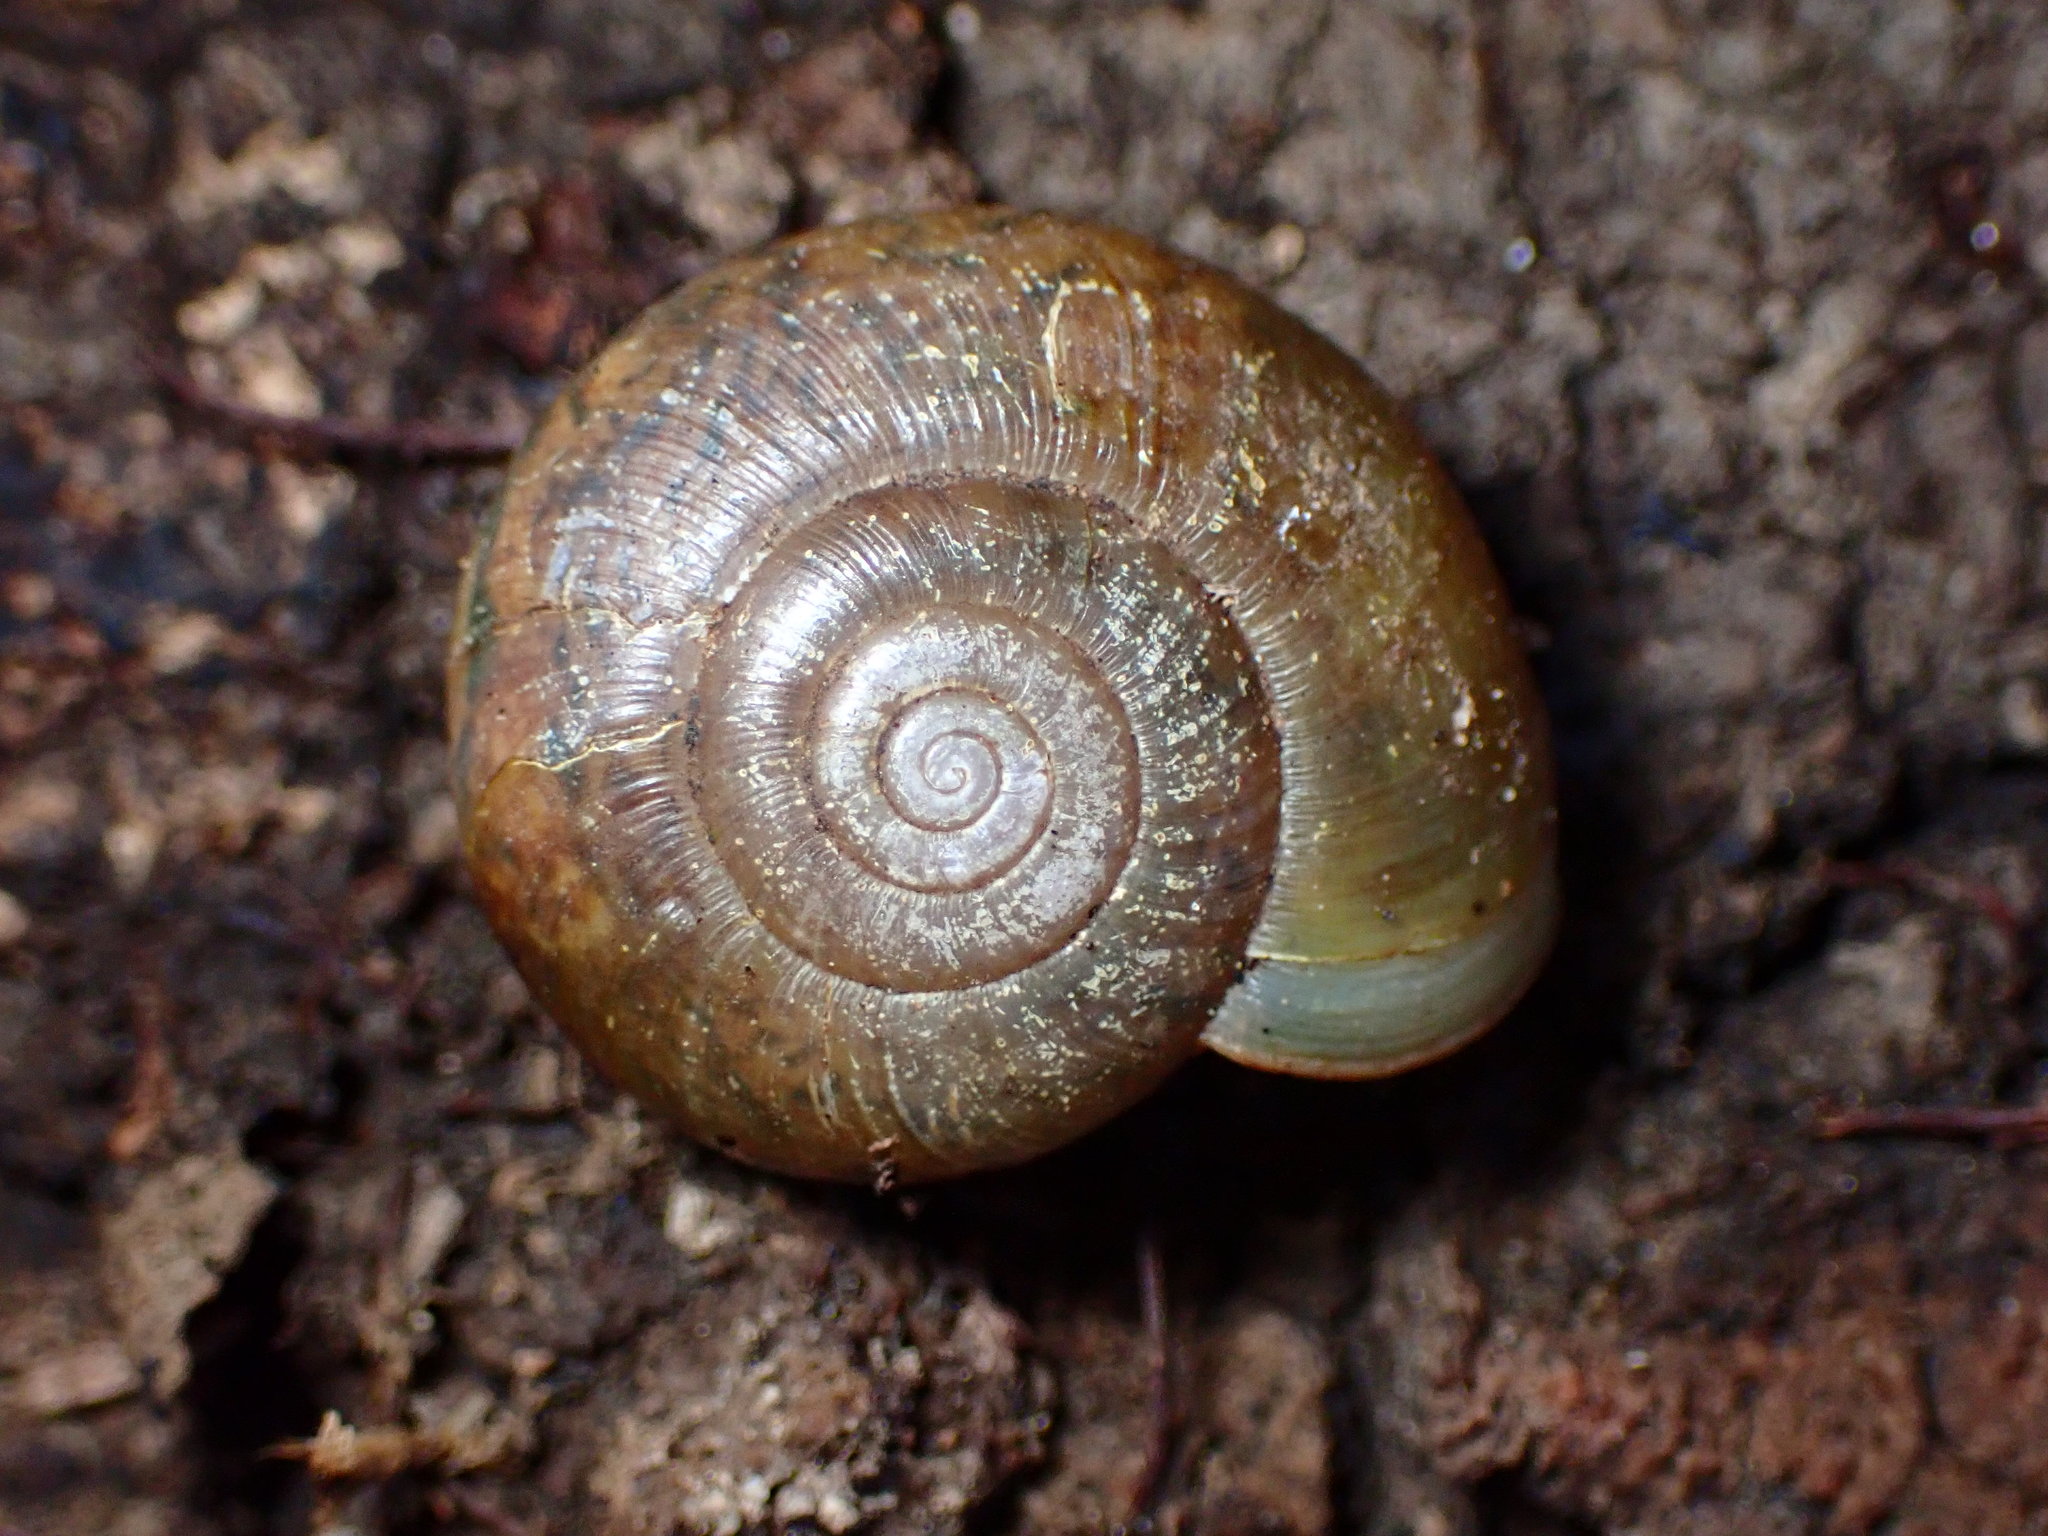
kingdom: Animalia
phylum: Mollusca
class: Gastropoda
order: Stylommatophora
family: Haplotrematidae
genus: Haplotrema
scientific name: Haplotrema minimum
